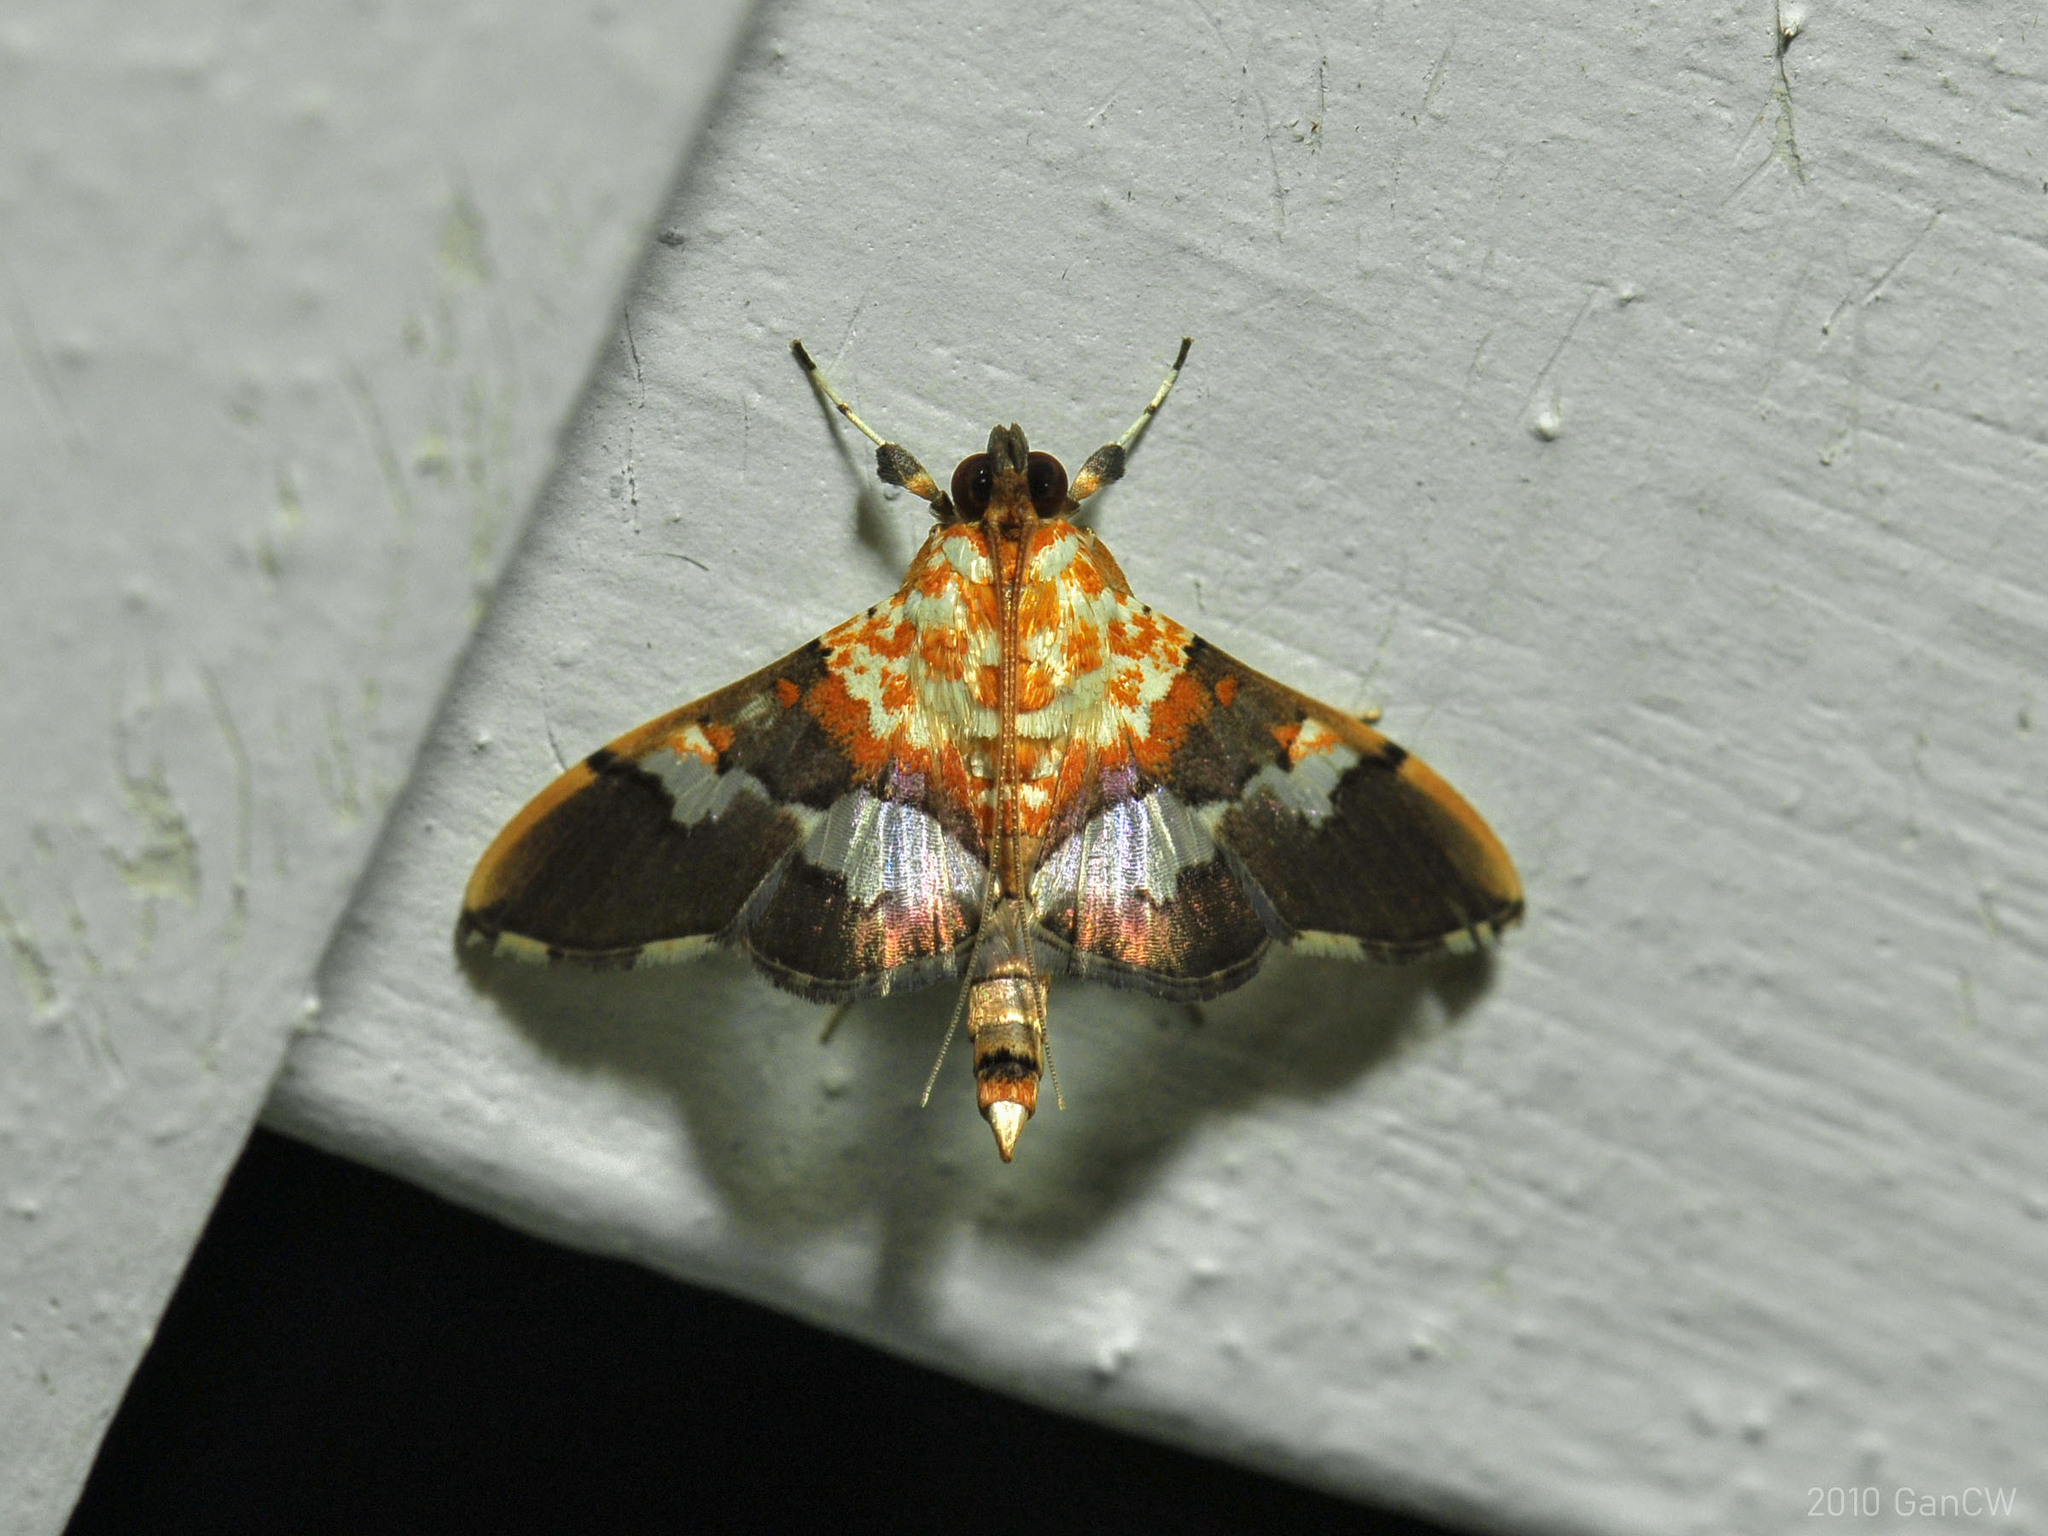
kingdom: Animalia
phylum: Arthropoda
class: Insecta
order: Lepidoptera
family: Crambidae
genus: Aetholix
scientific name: Aetholix flavibasalis
